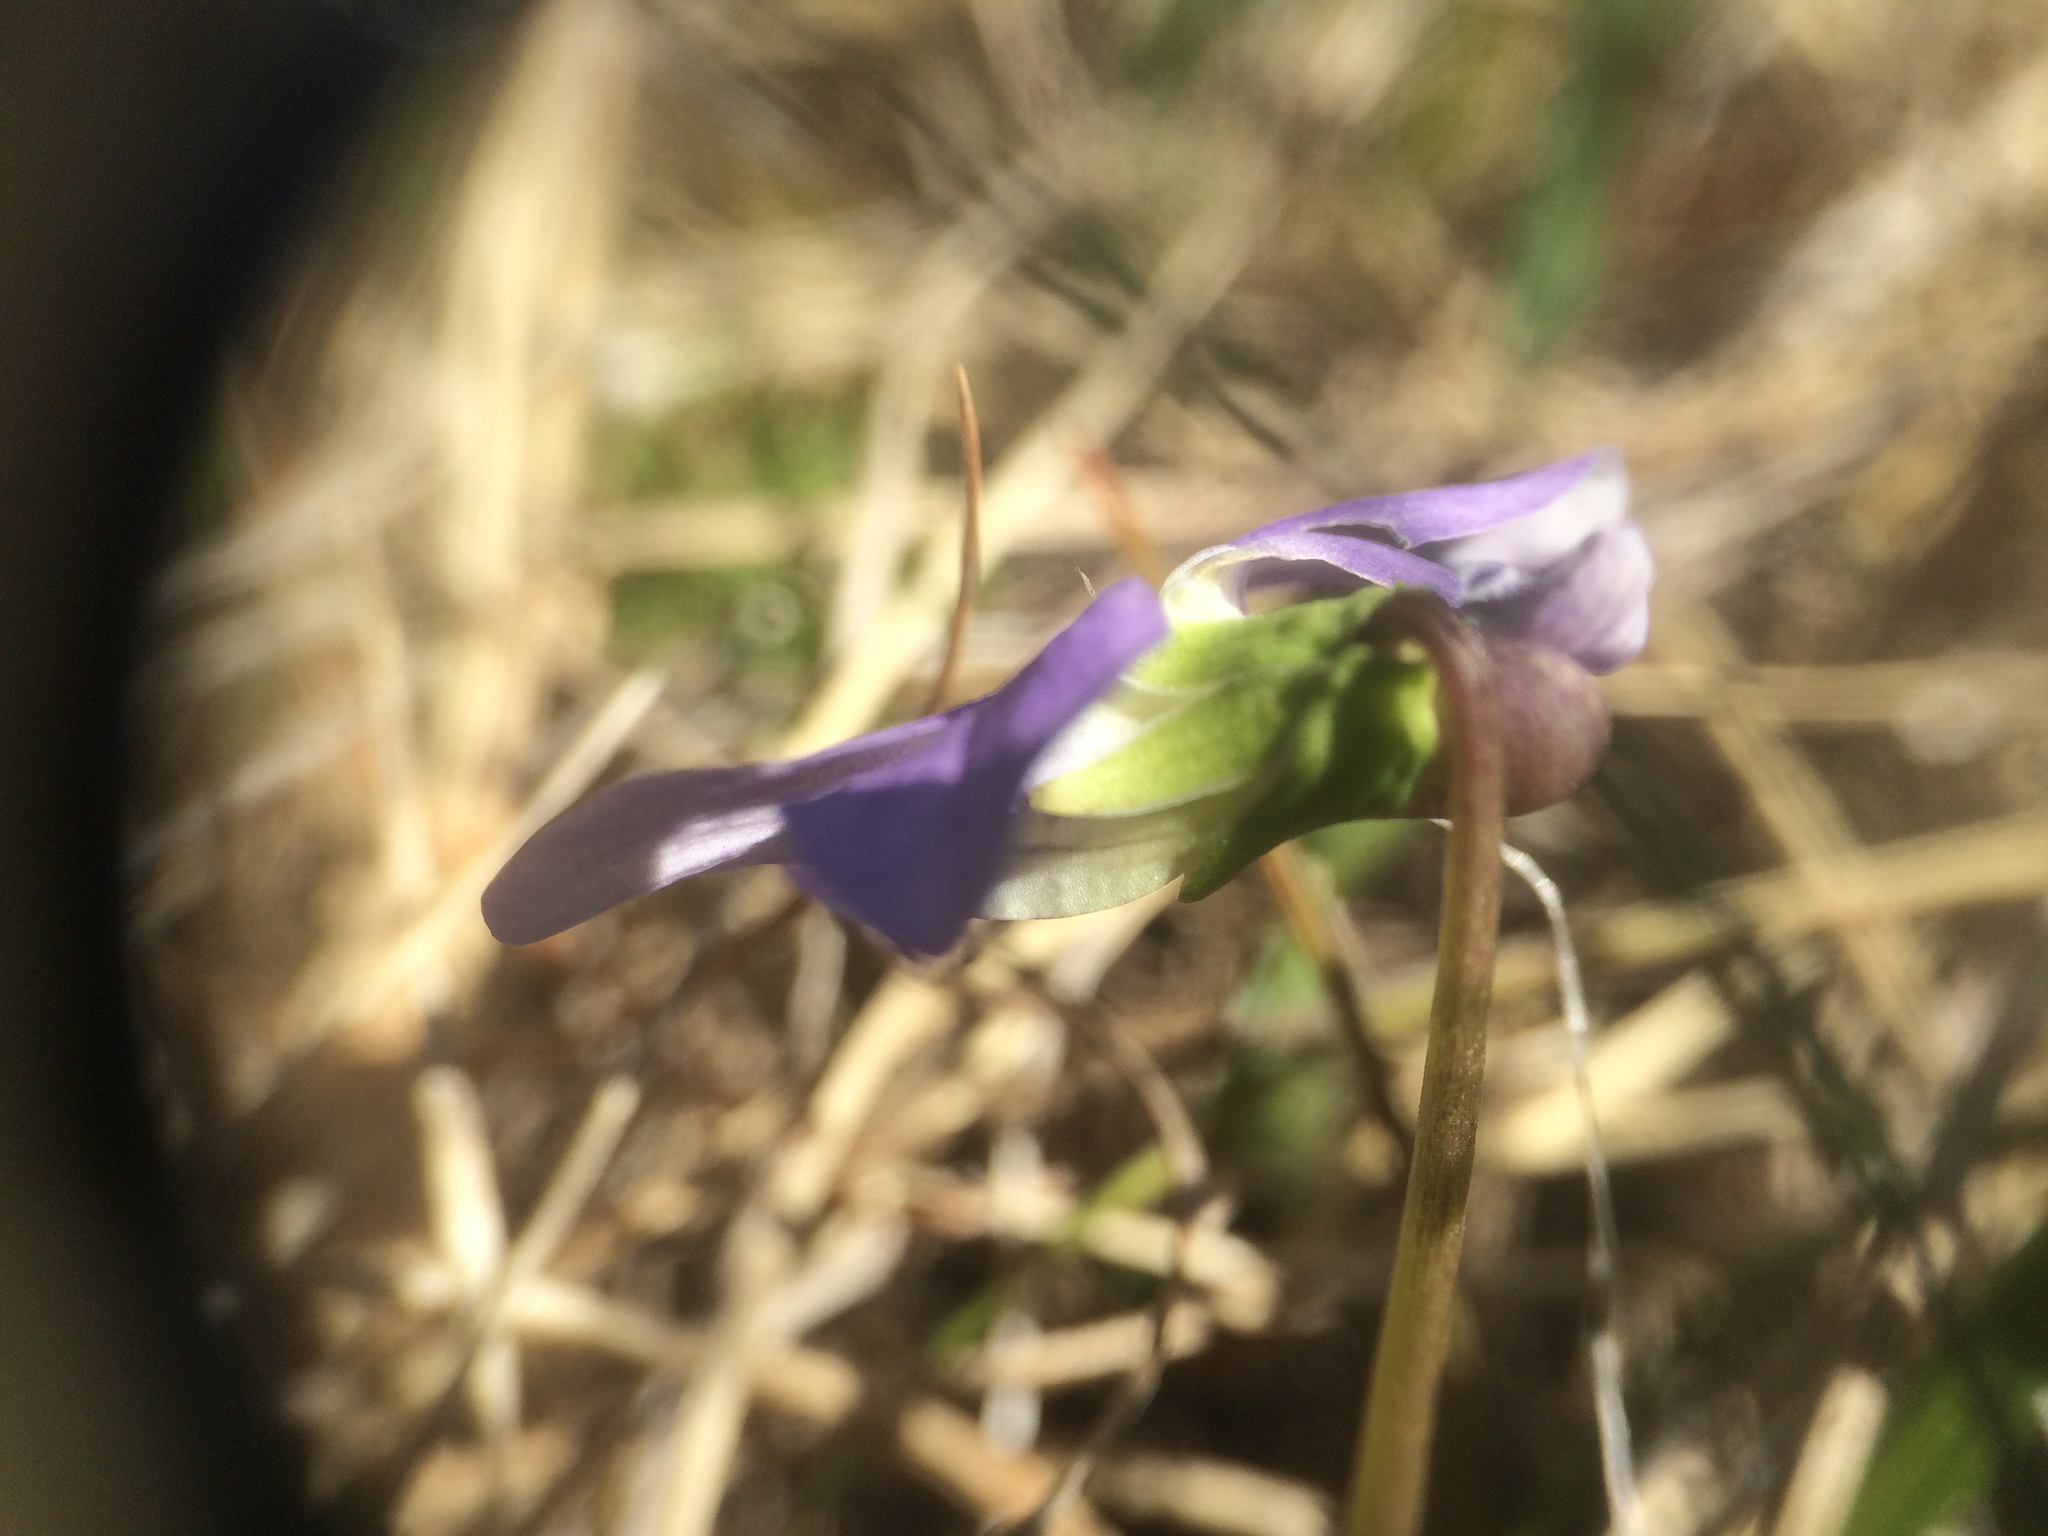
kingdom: Plantae
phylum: Tracheophyta
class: Magnoliopsida
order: Malpighiales
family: Violaceae
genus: Viola
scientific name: Viola communis
